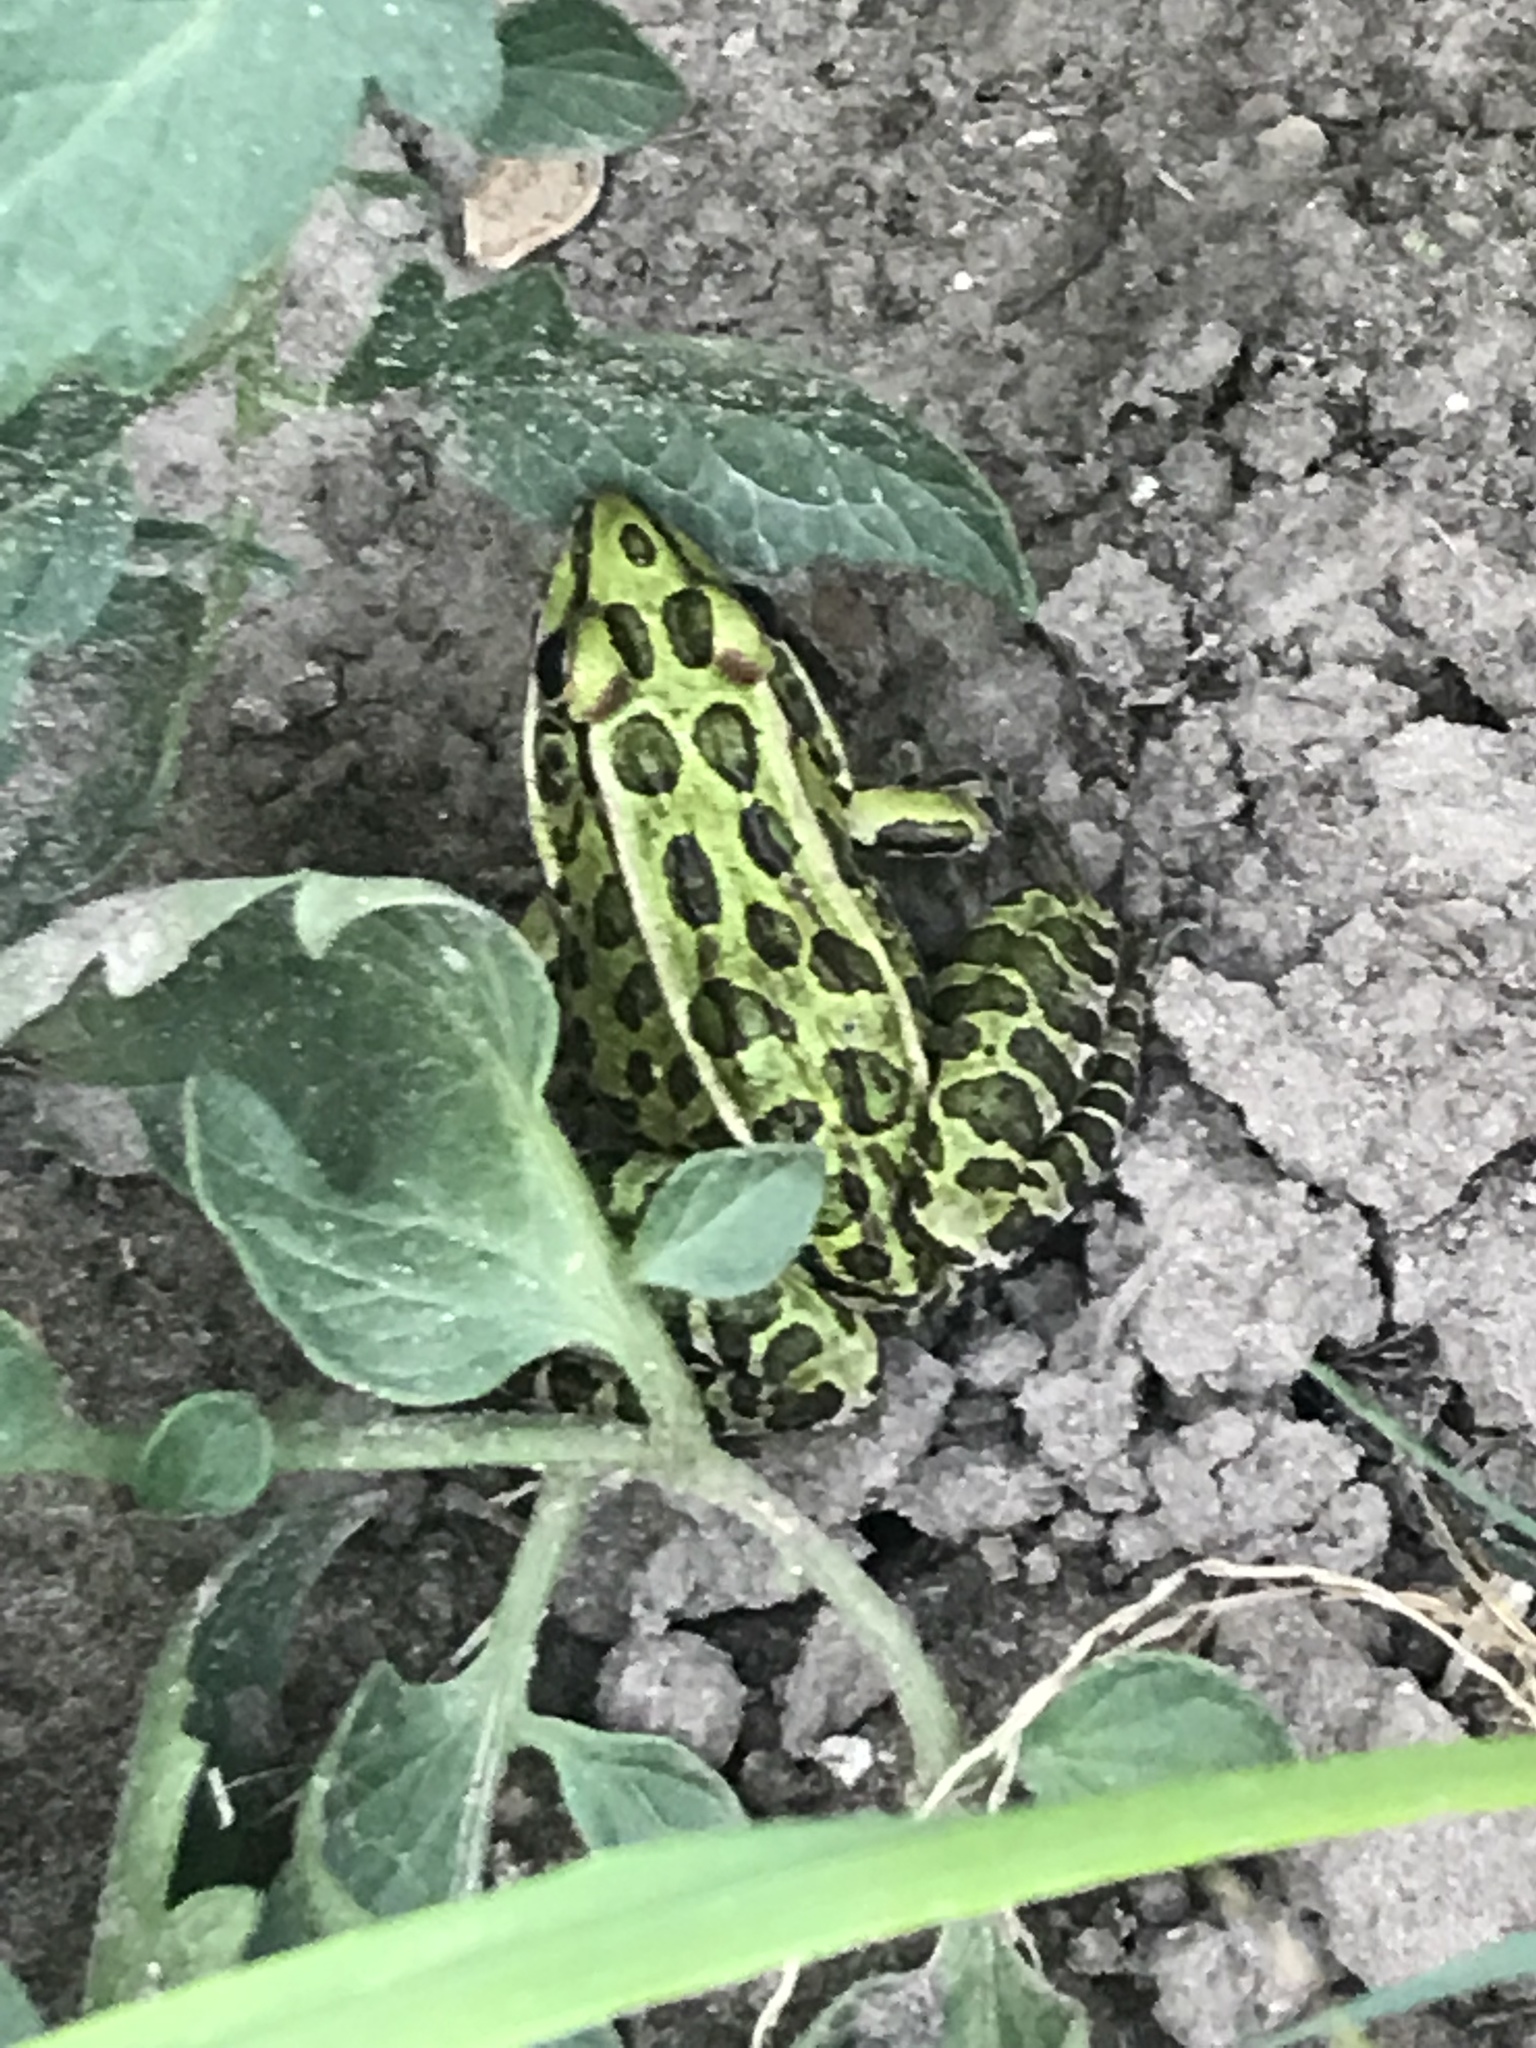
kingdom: Animalia
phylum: Chordata
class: Amphibia
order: Anura
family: Ranidae
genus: Lithobates
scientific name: Lithobates pipiens
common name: Northern leopard frog
